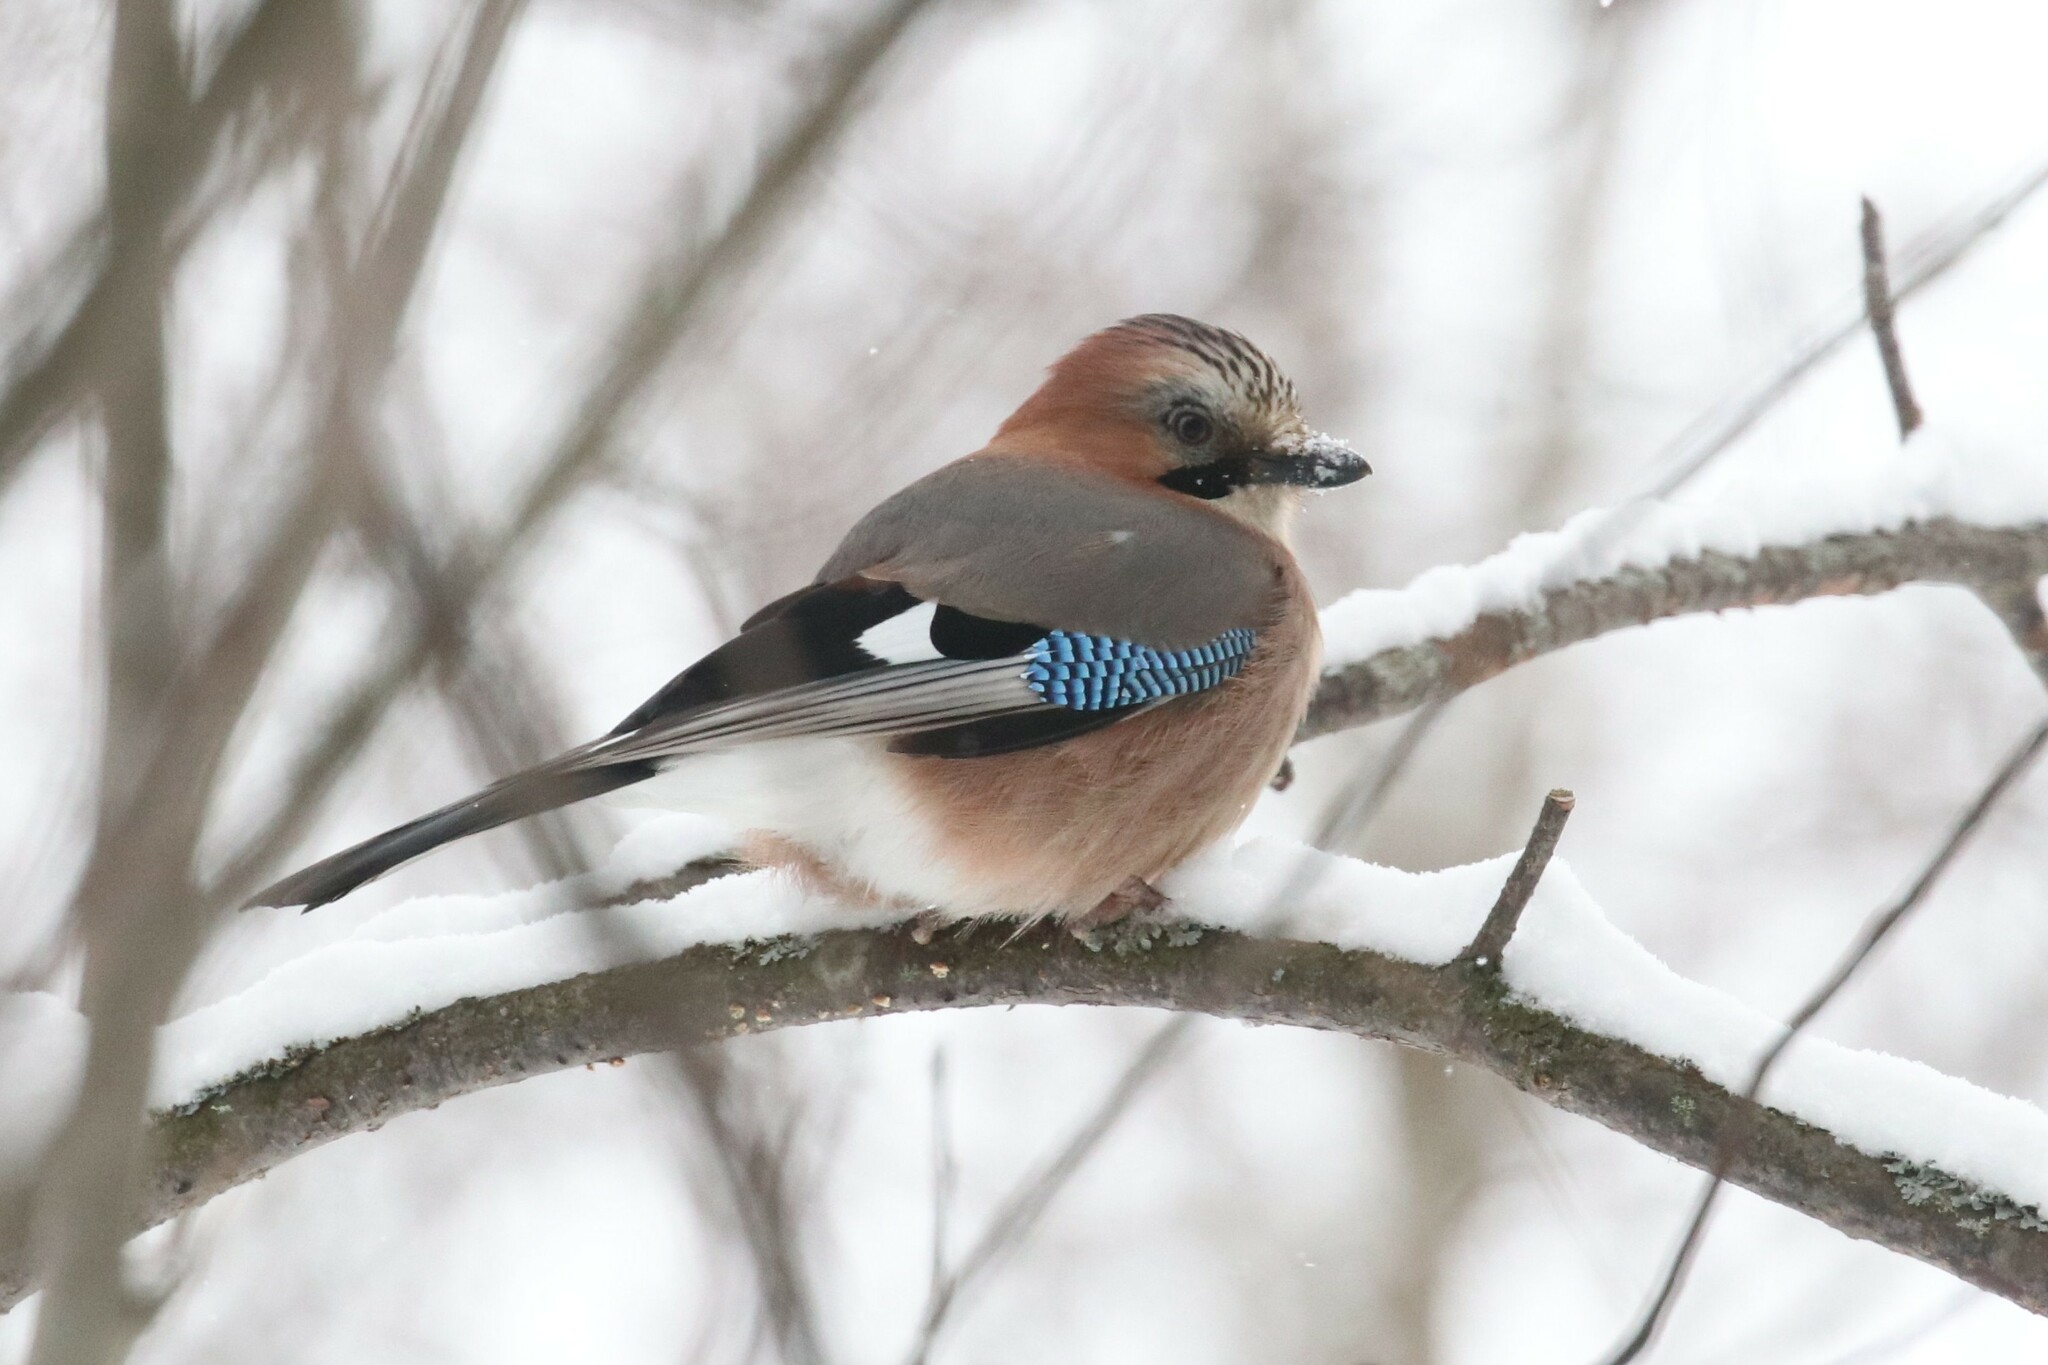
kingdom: Animalia
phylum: Chordata
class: Aves
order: Passeriformes
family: Corvidae
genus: Garrulus
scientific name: Garrulus glandarius
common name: Eurasian jay
